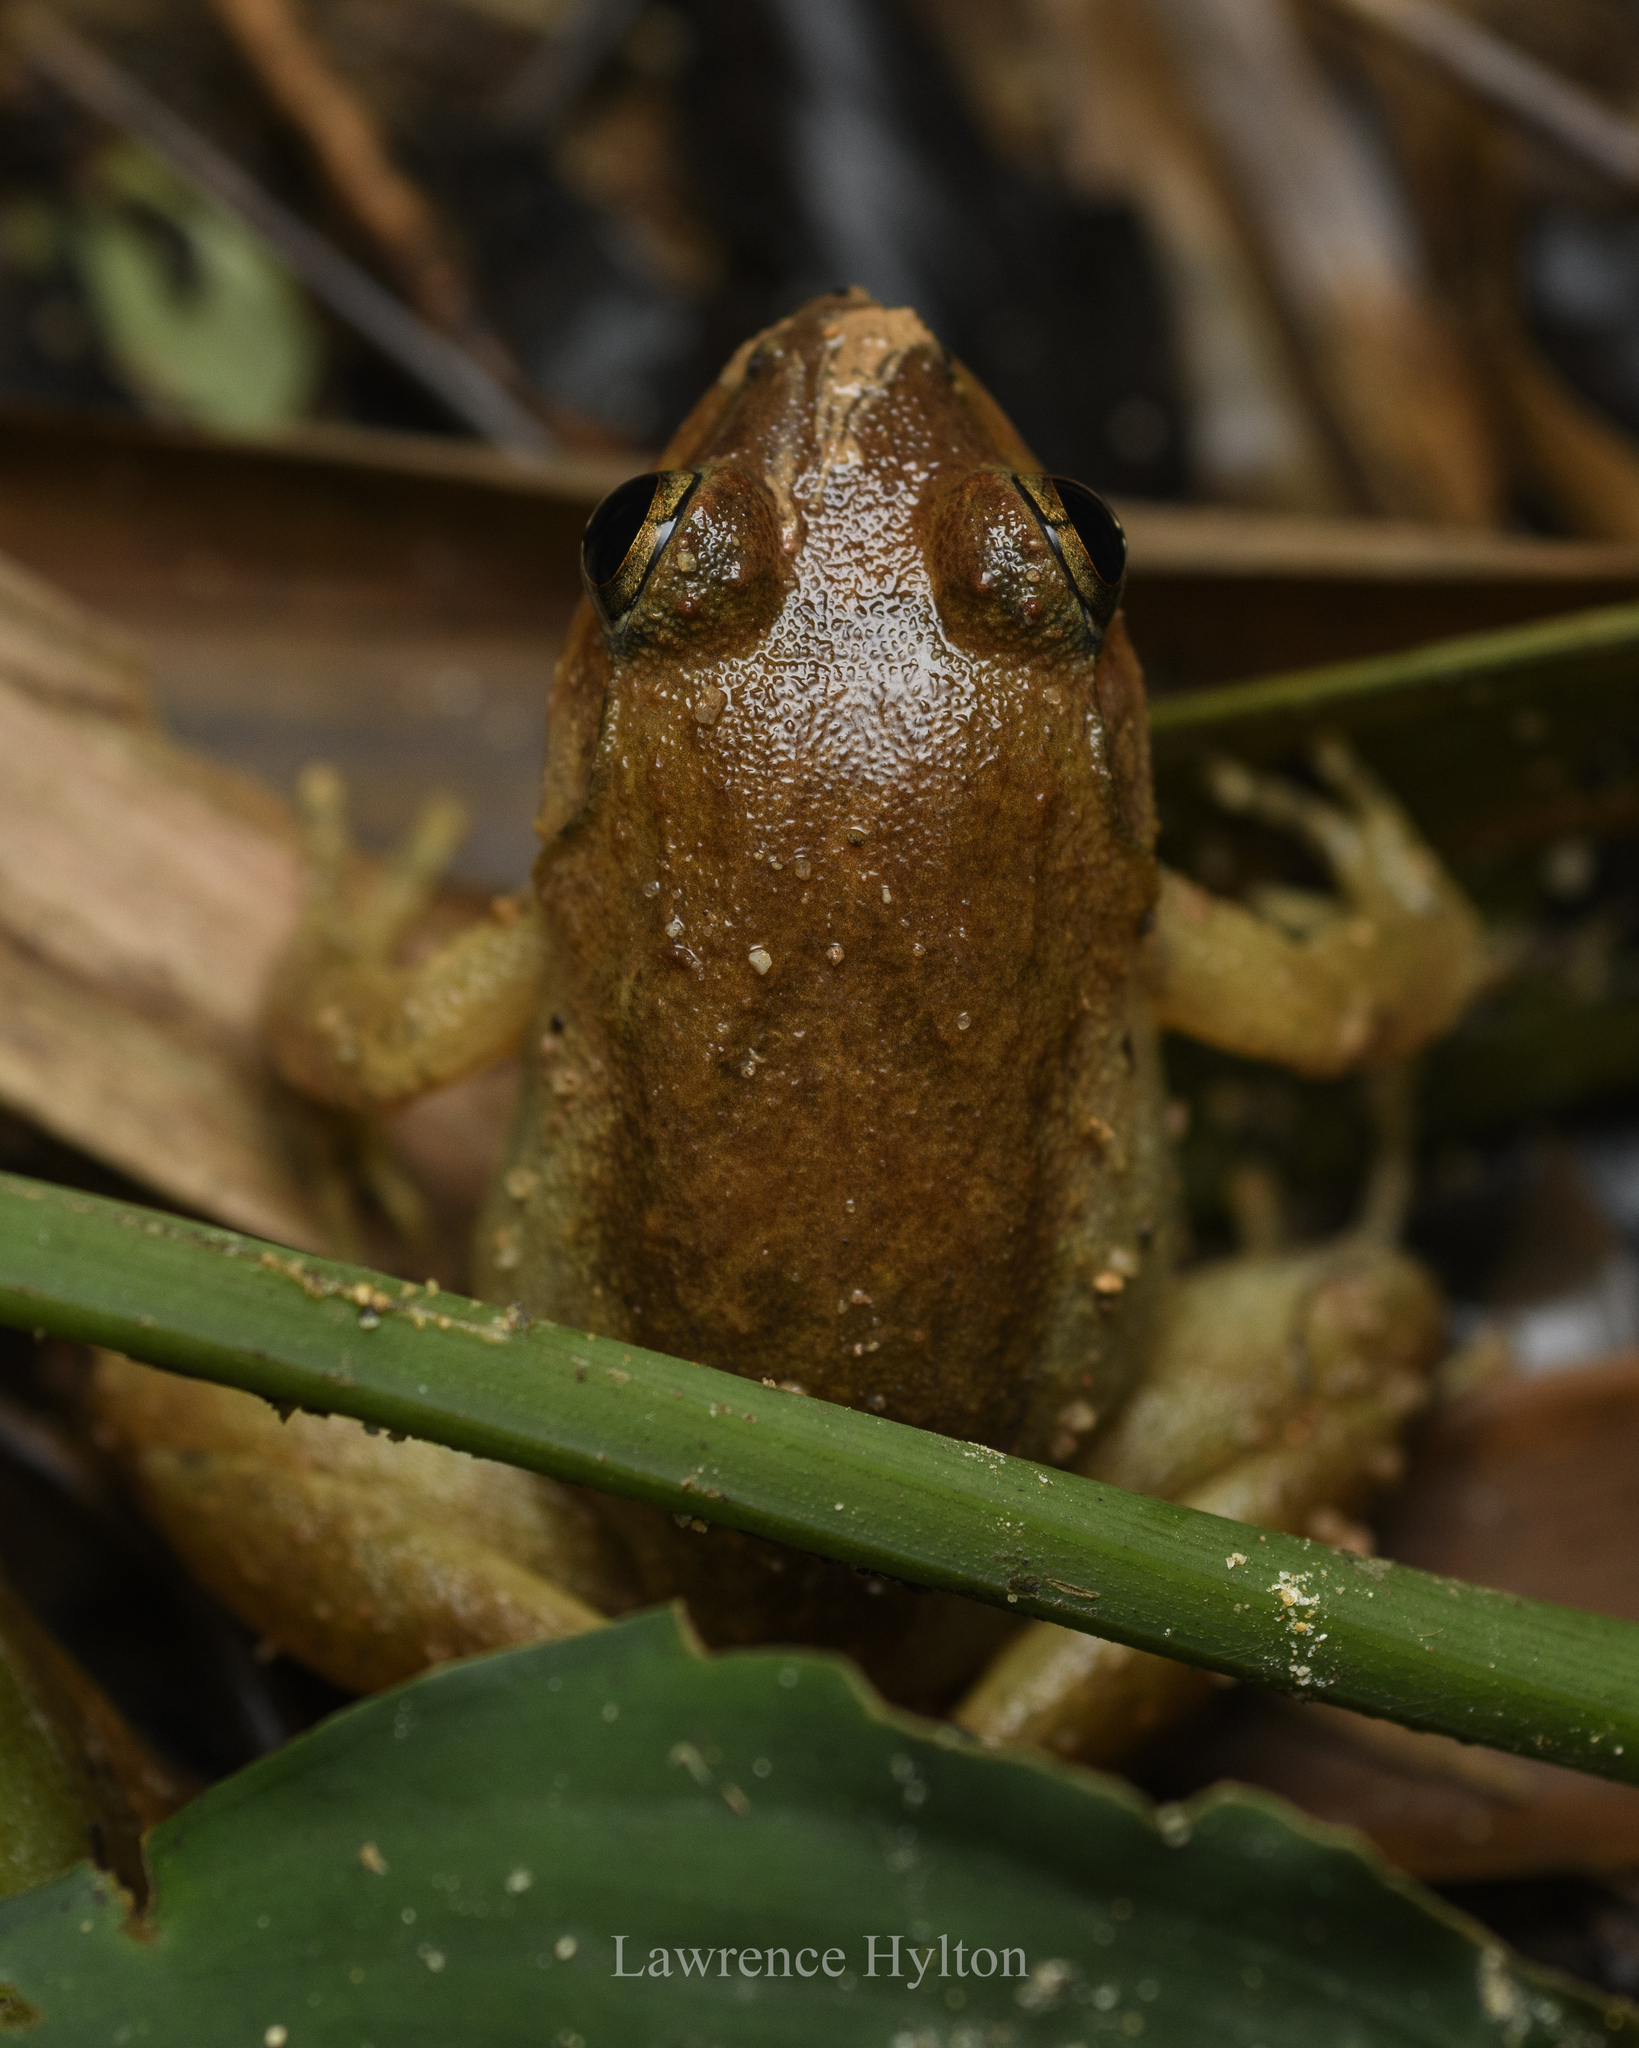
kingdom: Animalia
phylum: Chordata
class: Amphibia
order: Anura
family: Dicroglossidae
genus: Limnonectes
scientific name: Limnonectes hascheanus
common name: Hill forest frog
